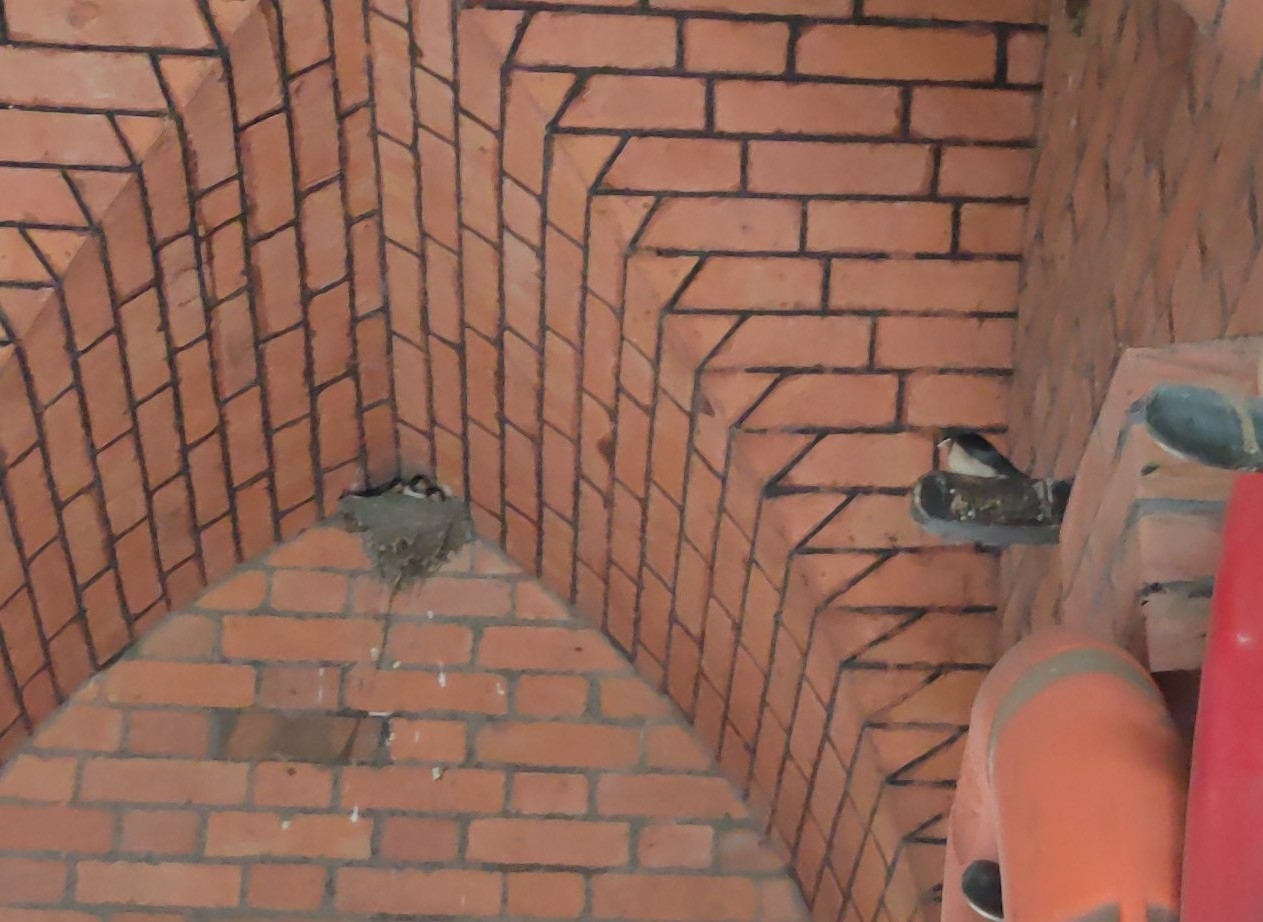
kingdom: Animalia
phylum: Chordata
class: Aves
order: Passeriformes
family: Hirundinidae
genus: Hirundo
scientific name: Hirundo rustica
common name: Barn swallow
